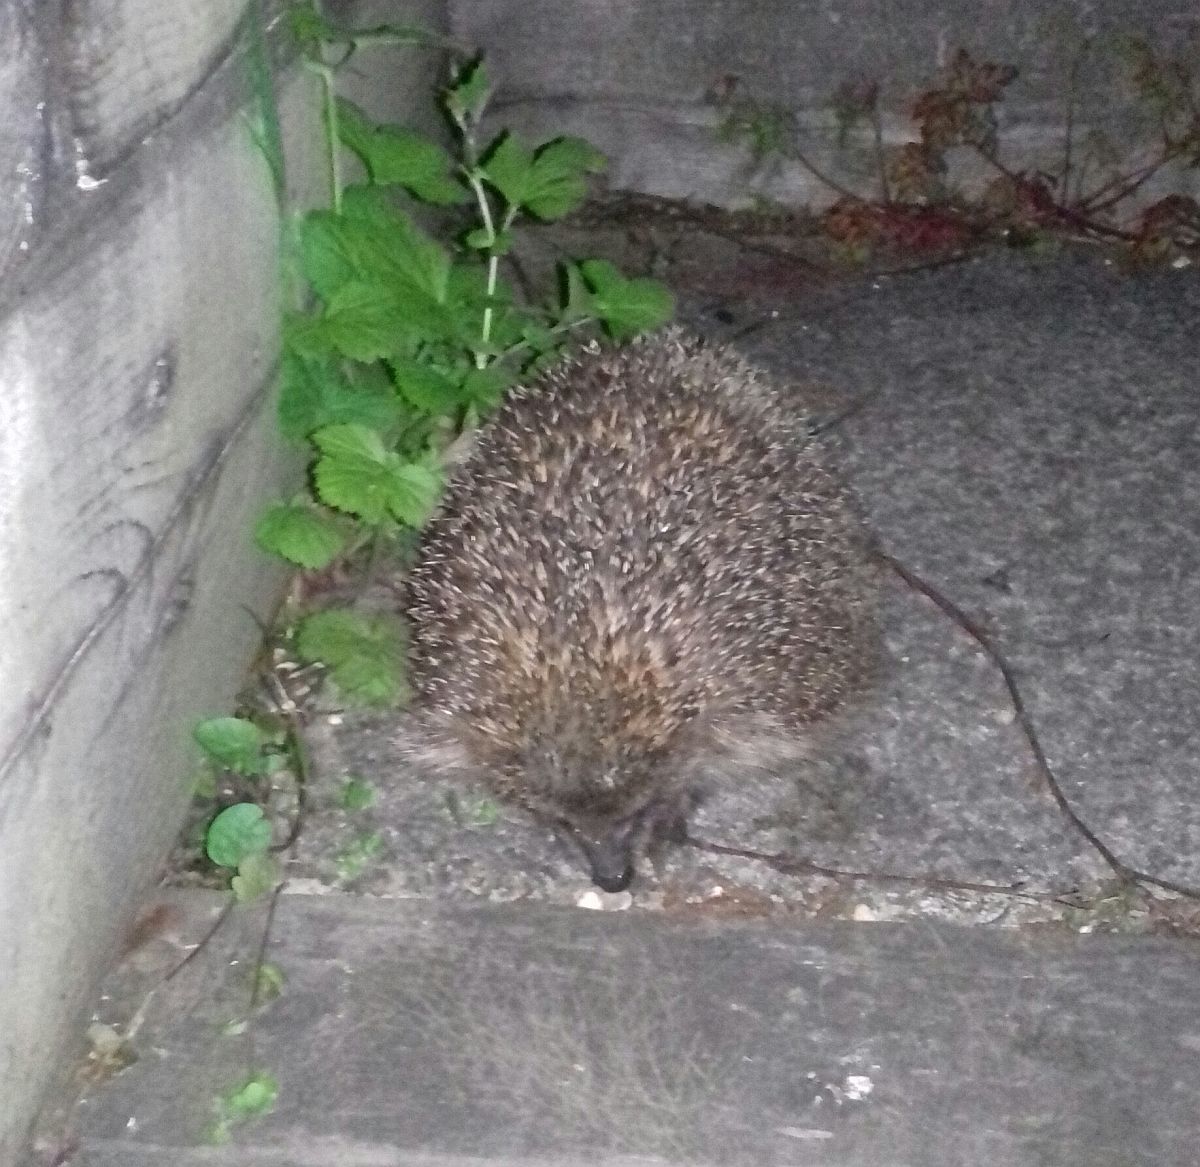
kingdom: Animalia
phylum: Chordata
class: Mammalia
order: Erinaceomorpha
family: Erinaceidae
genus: Erinaceus
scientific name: Erinaceus europaeus
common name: West european hedgehog
